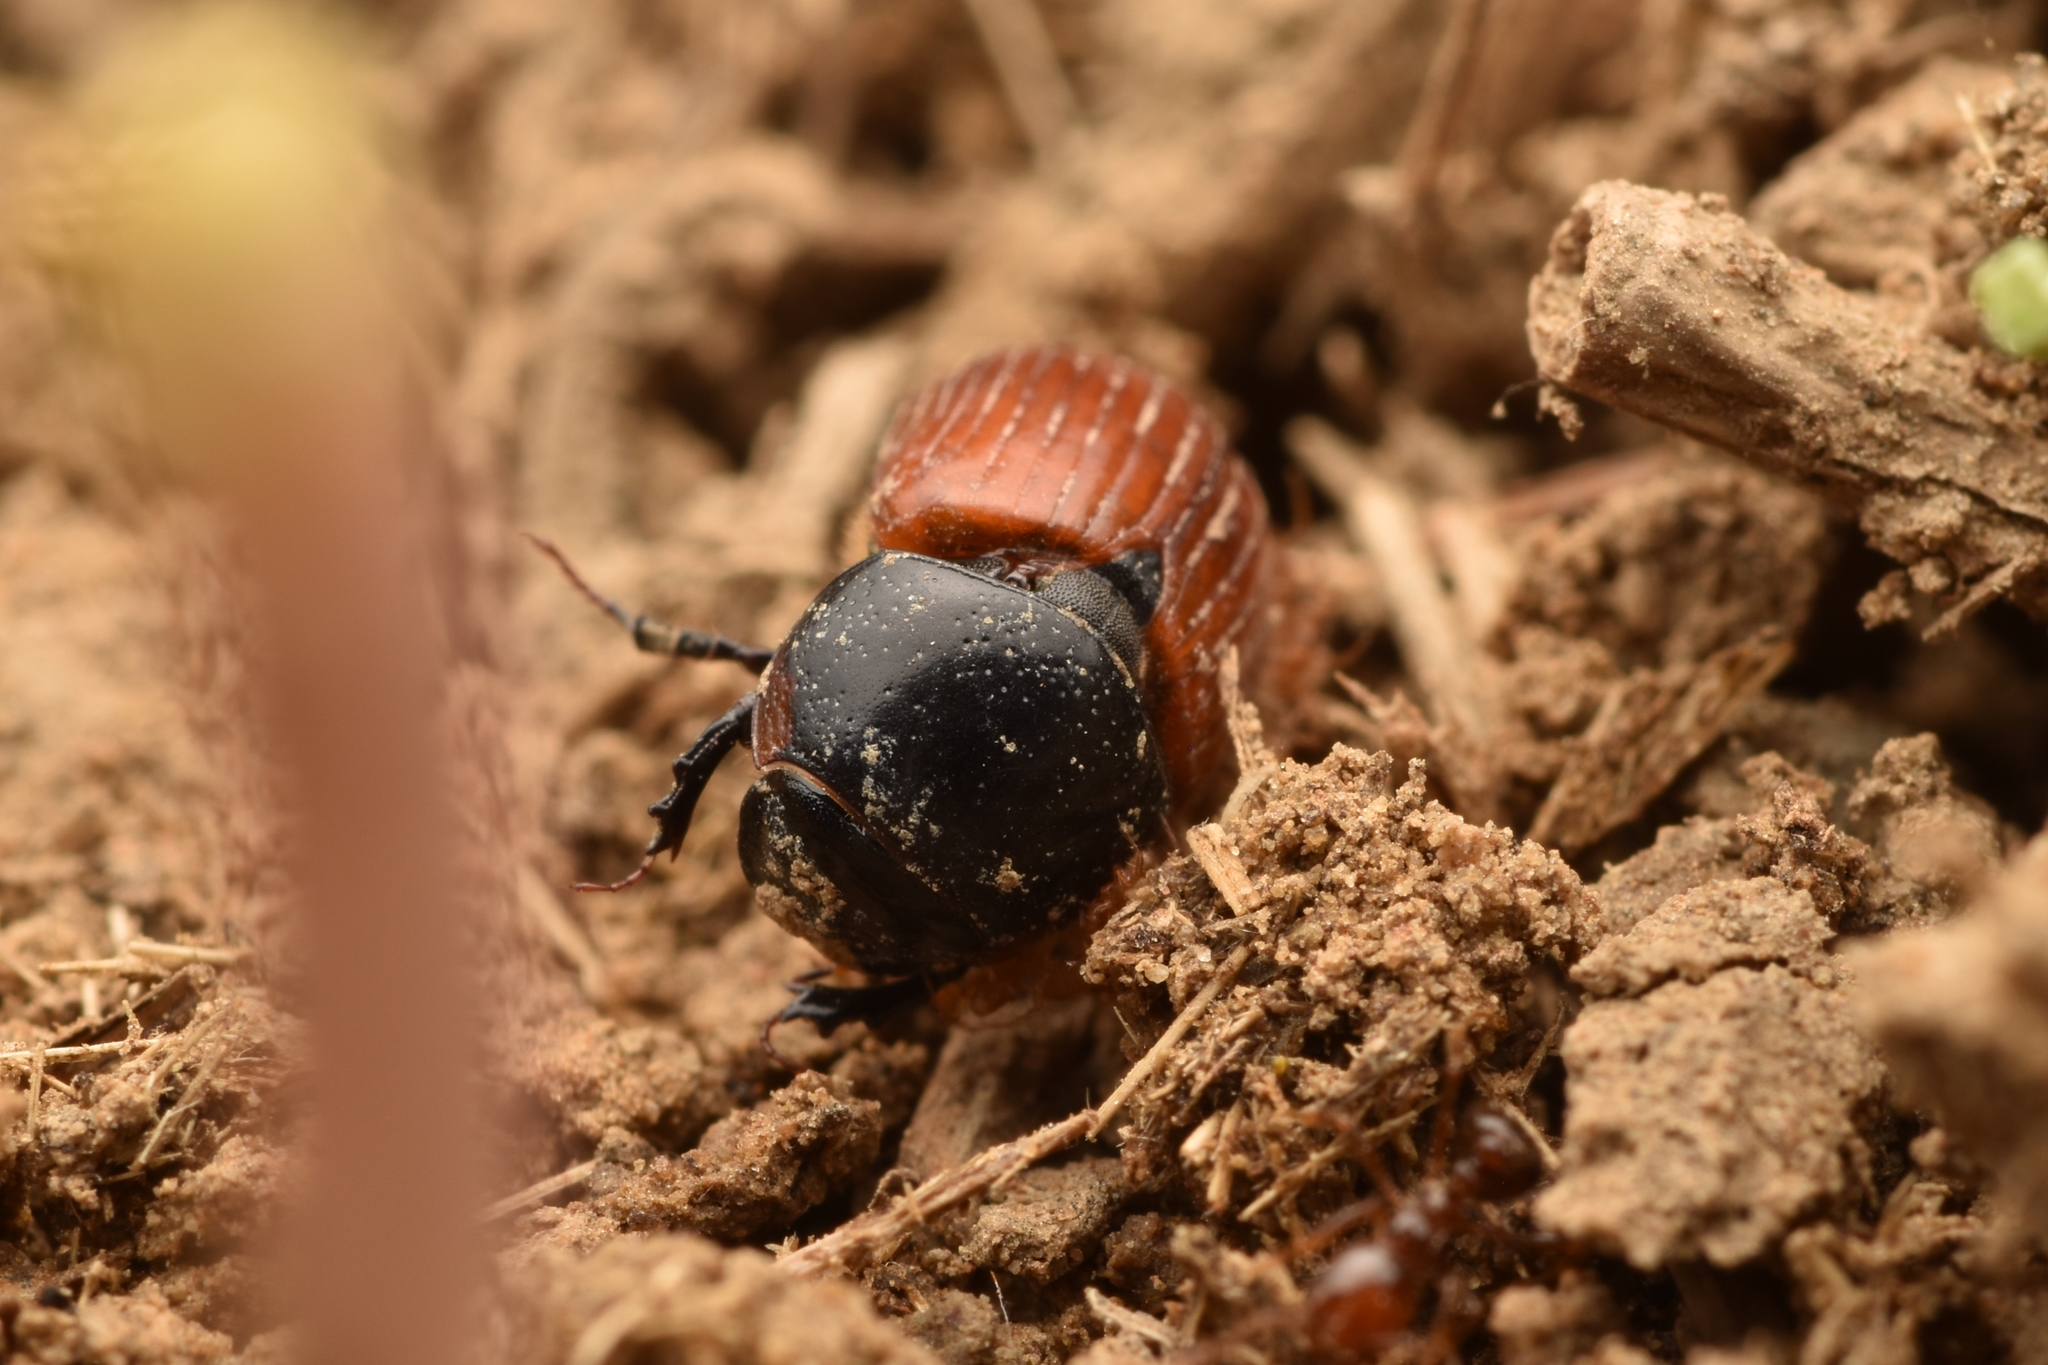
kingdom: Animalia
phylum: Arthropoda
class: Insecta
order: Coleoptera
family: Scarabaeidae
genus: Aphodius
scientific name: Aphodius pedellus
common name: Common dung beetle
